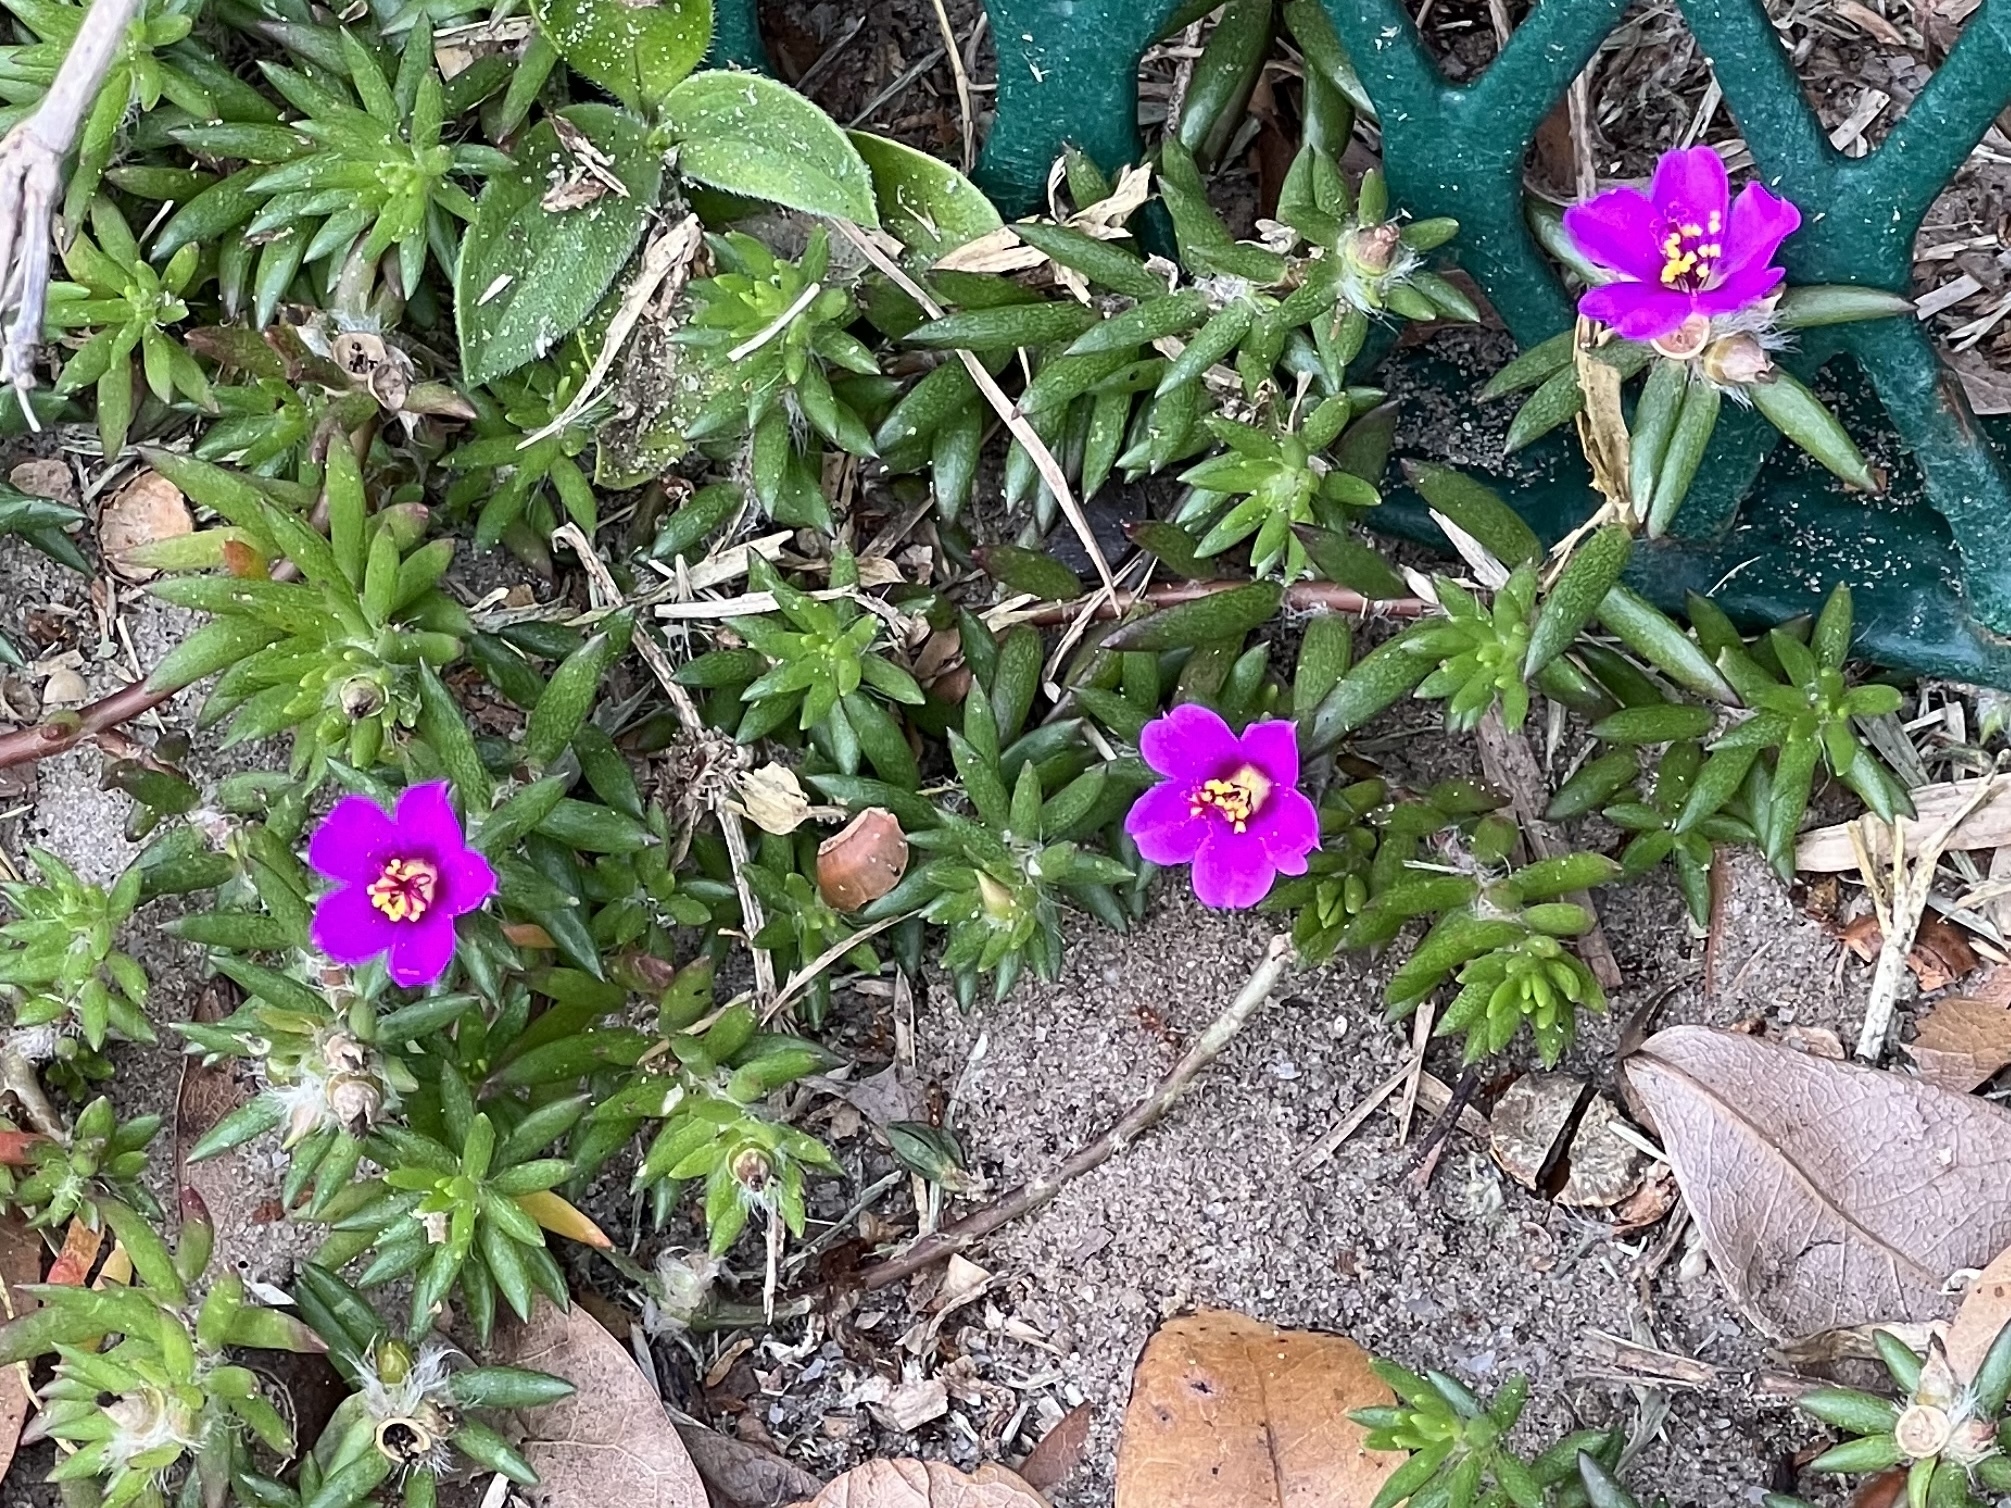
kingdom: Plantae
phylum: Tracheophyta
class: Magnoliopsida
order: Caryophyllales
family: Portulacaceae
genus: Portulaca
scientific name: Portulaca pilosa
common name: Kiss me quick
